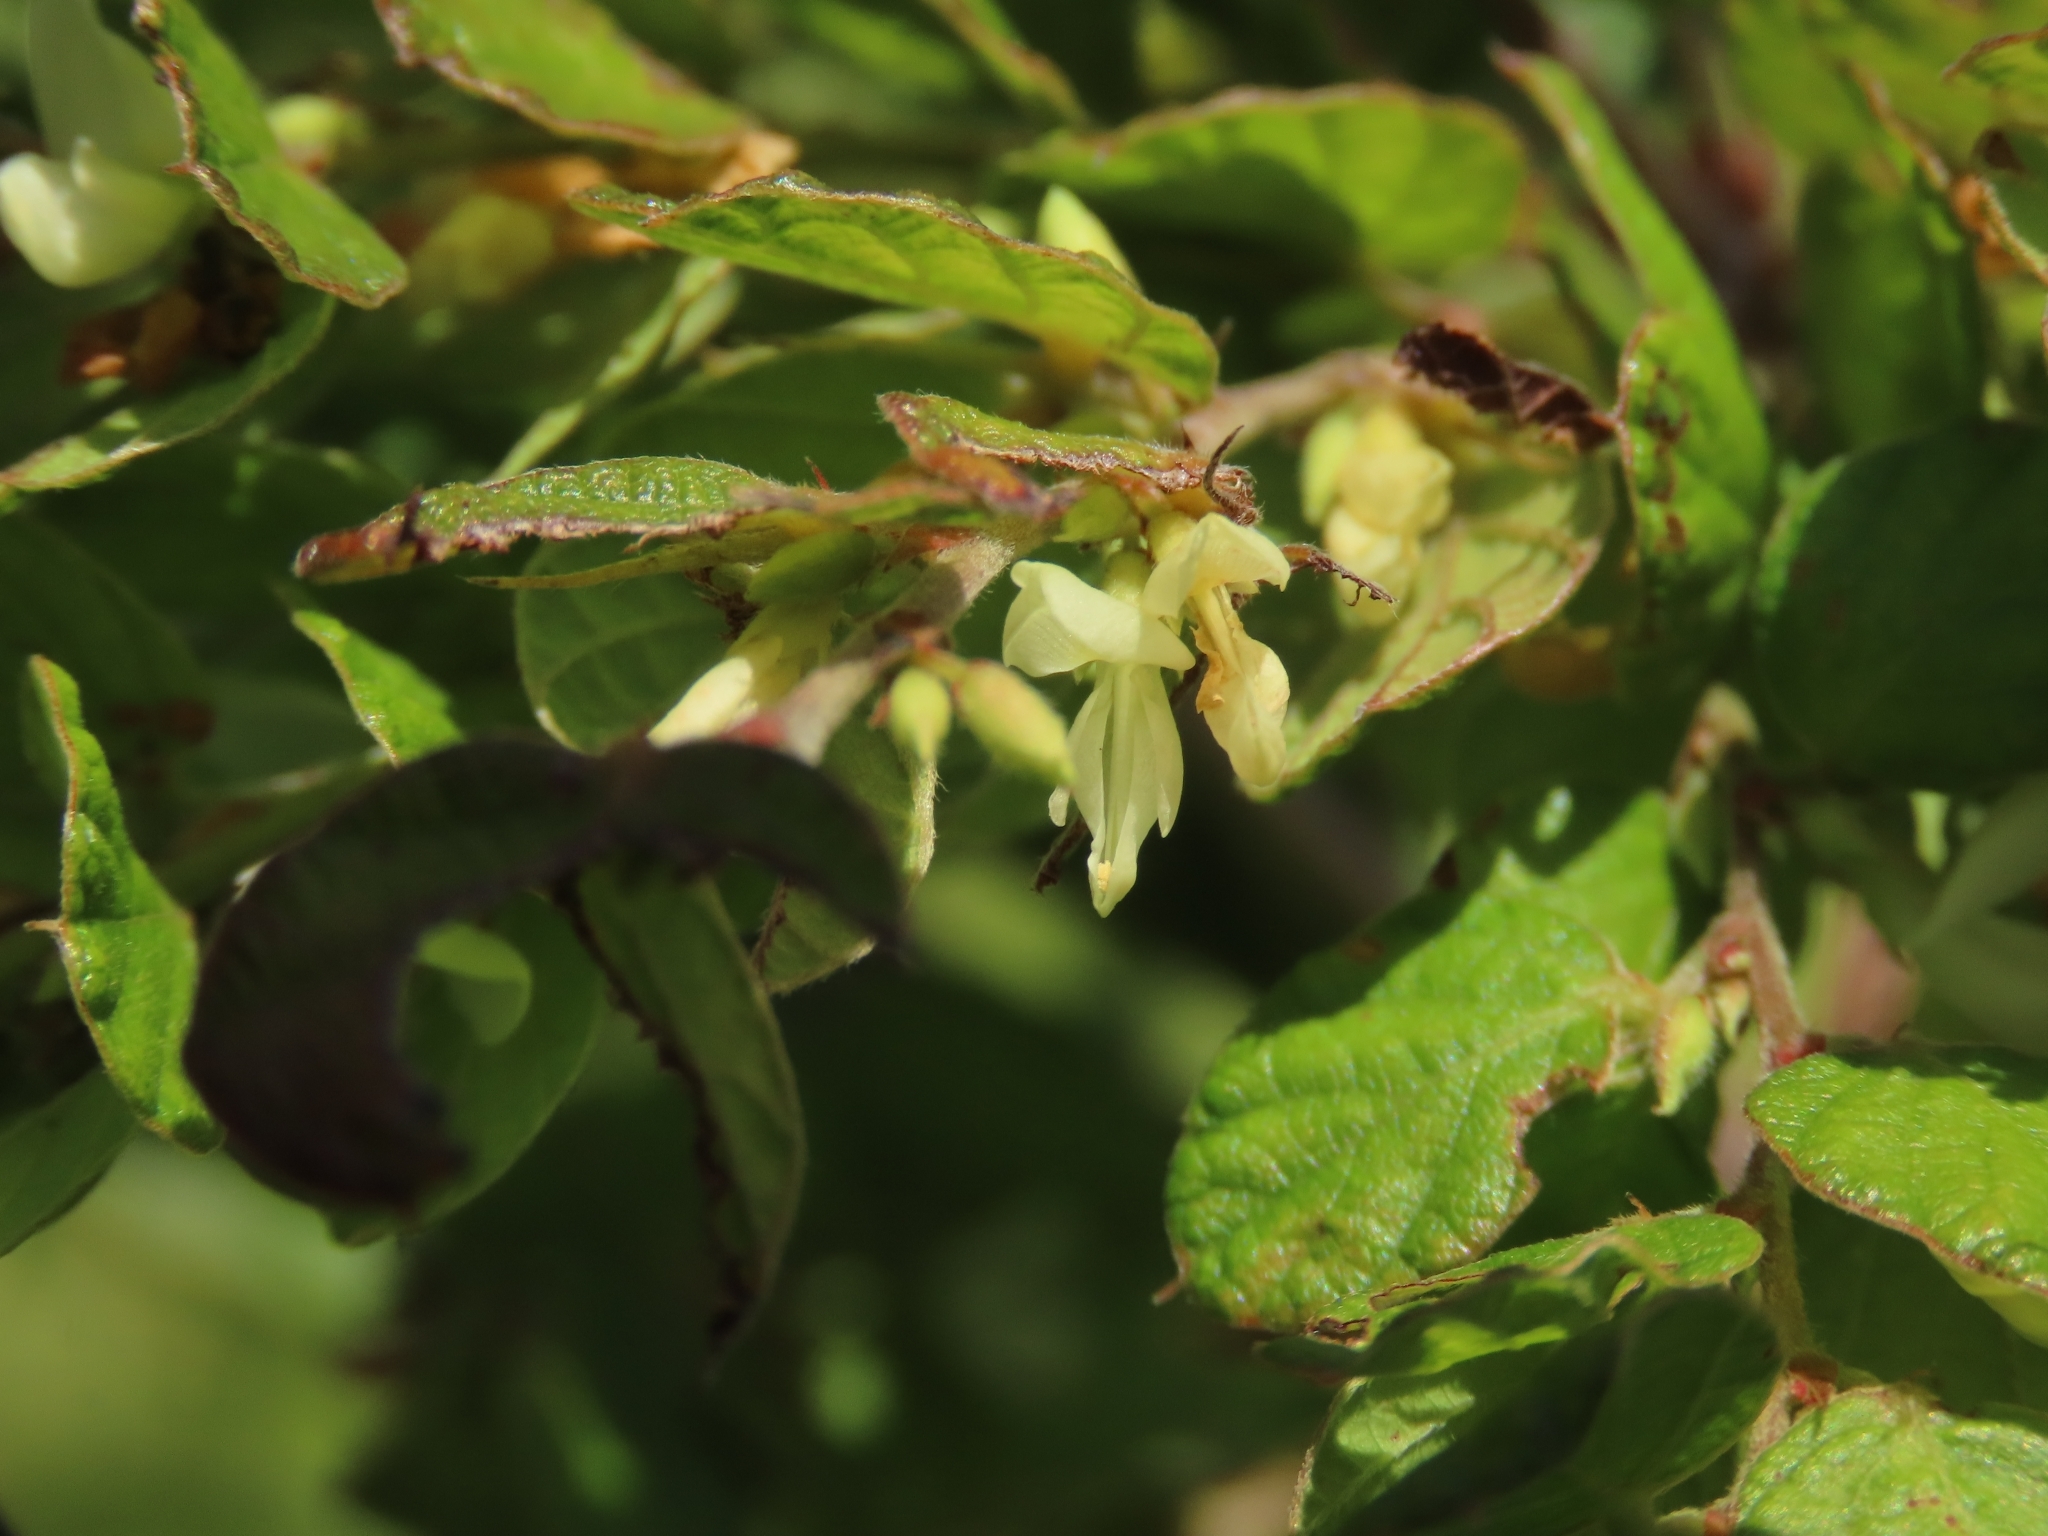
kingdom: Plantae
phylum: Tracheophyta
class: Magnoliopsida
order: Fabales
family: Fabaceae
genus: Phyllodium
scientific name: Phyllodium pulchellum
